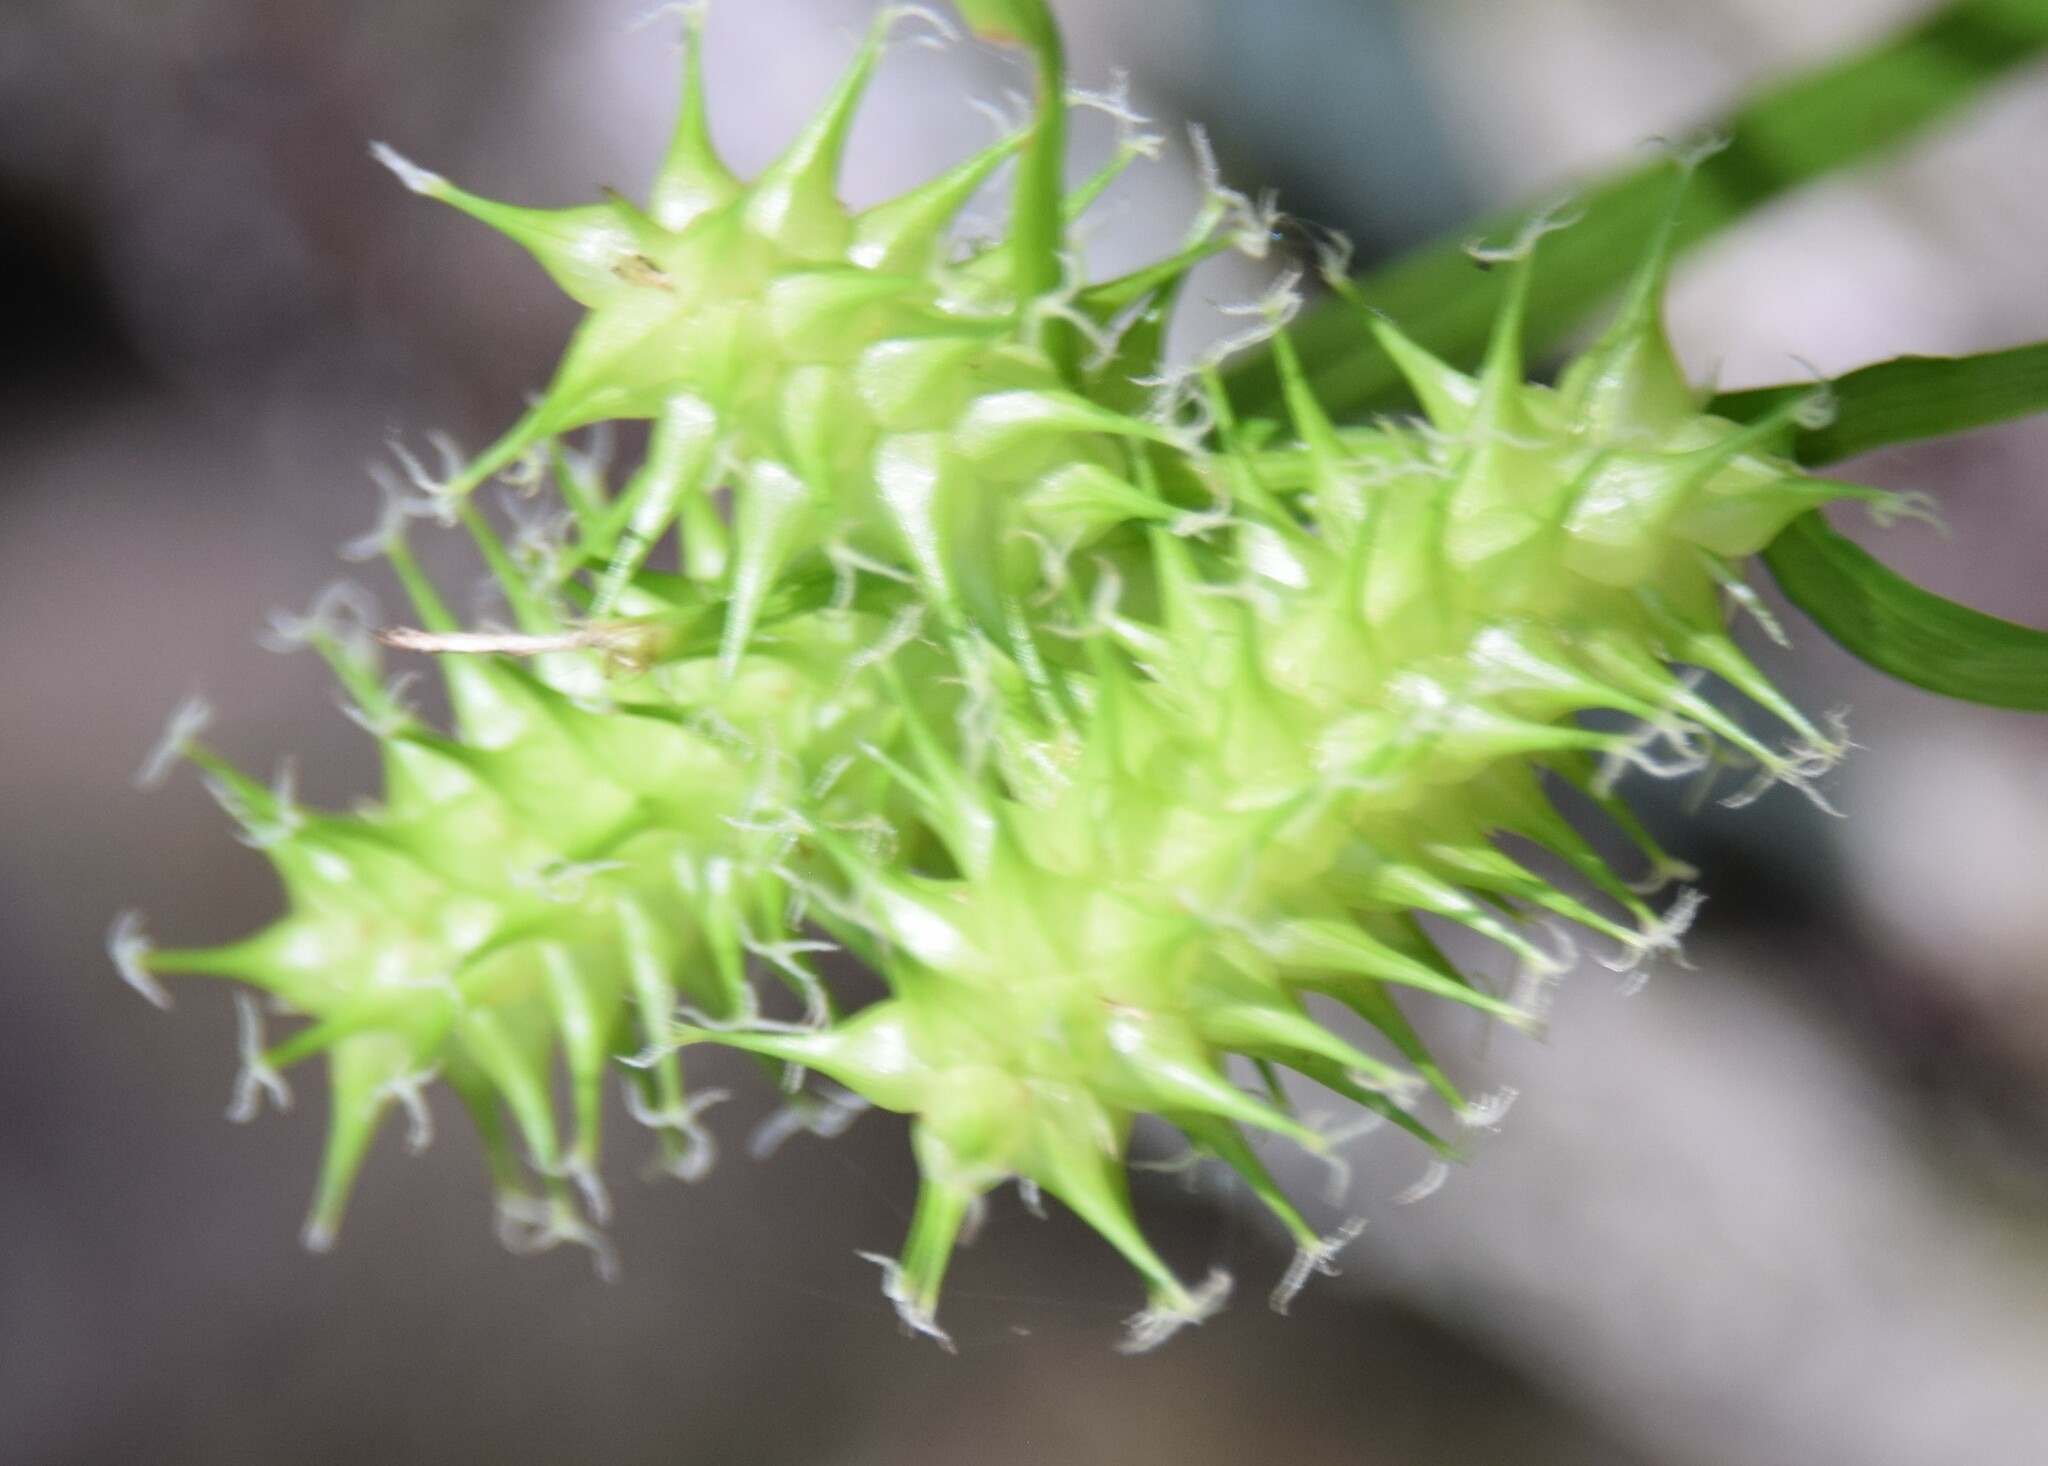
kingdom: Plantae
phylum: Tracheophyta
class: Liliopsida
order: Poales
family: Cyperaceae
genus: Carex
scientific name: Carex retrorsa
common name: Knot-sheath sedge
